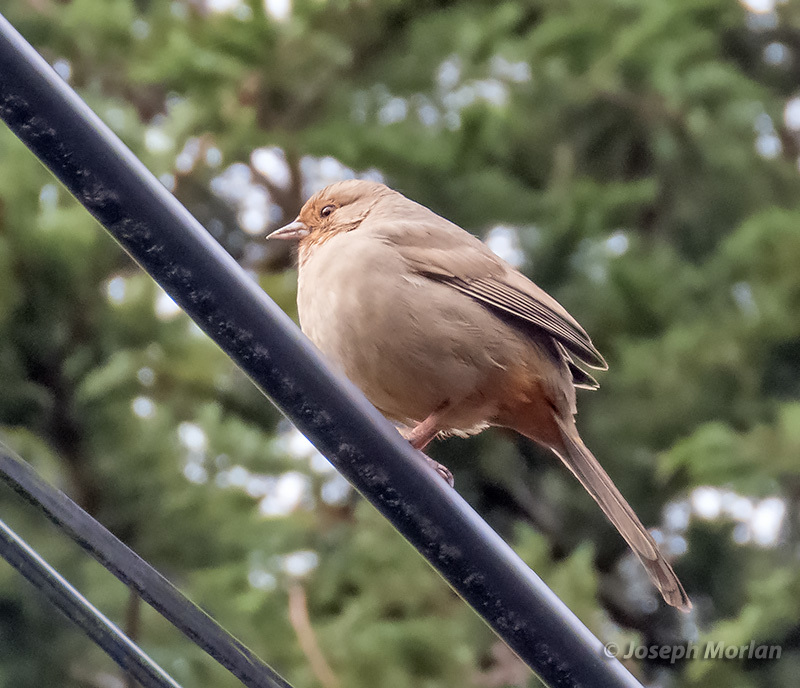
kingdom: Animalia
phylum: Chordata
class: Aves
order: Passeriformes
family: Passerellidae
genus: Melozone
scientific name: Melozone crissalis
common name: California towhee
